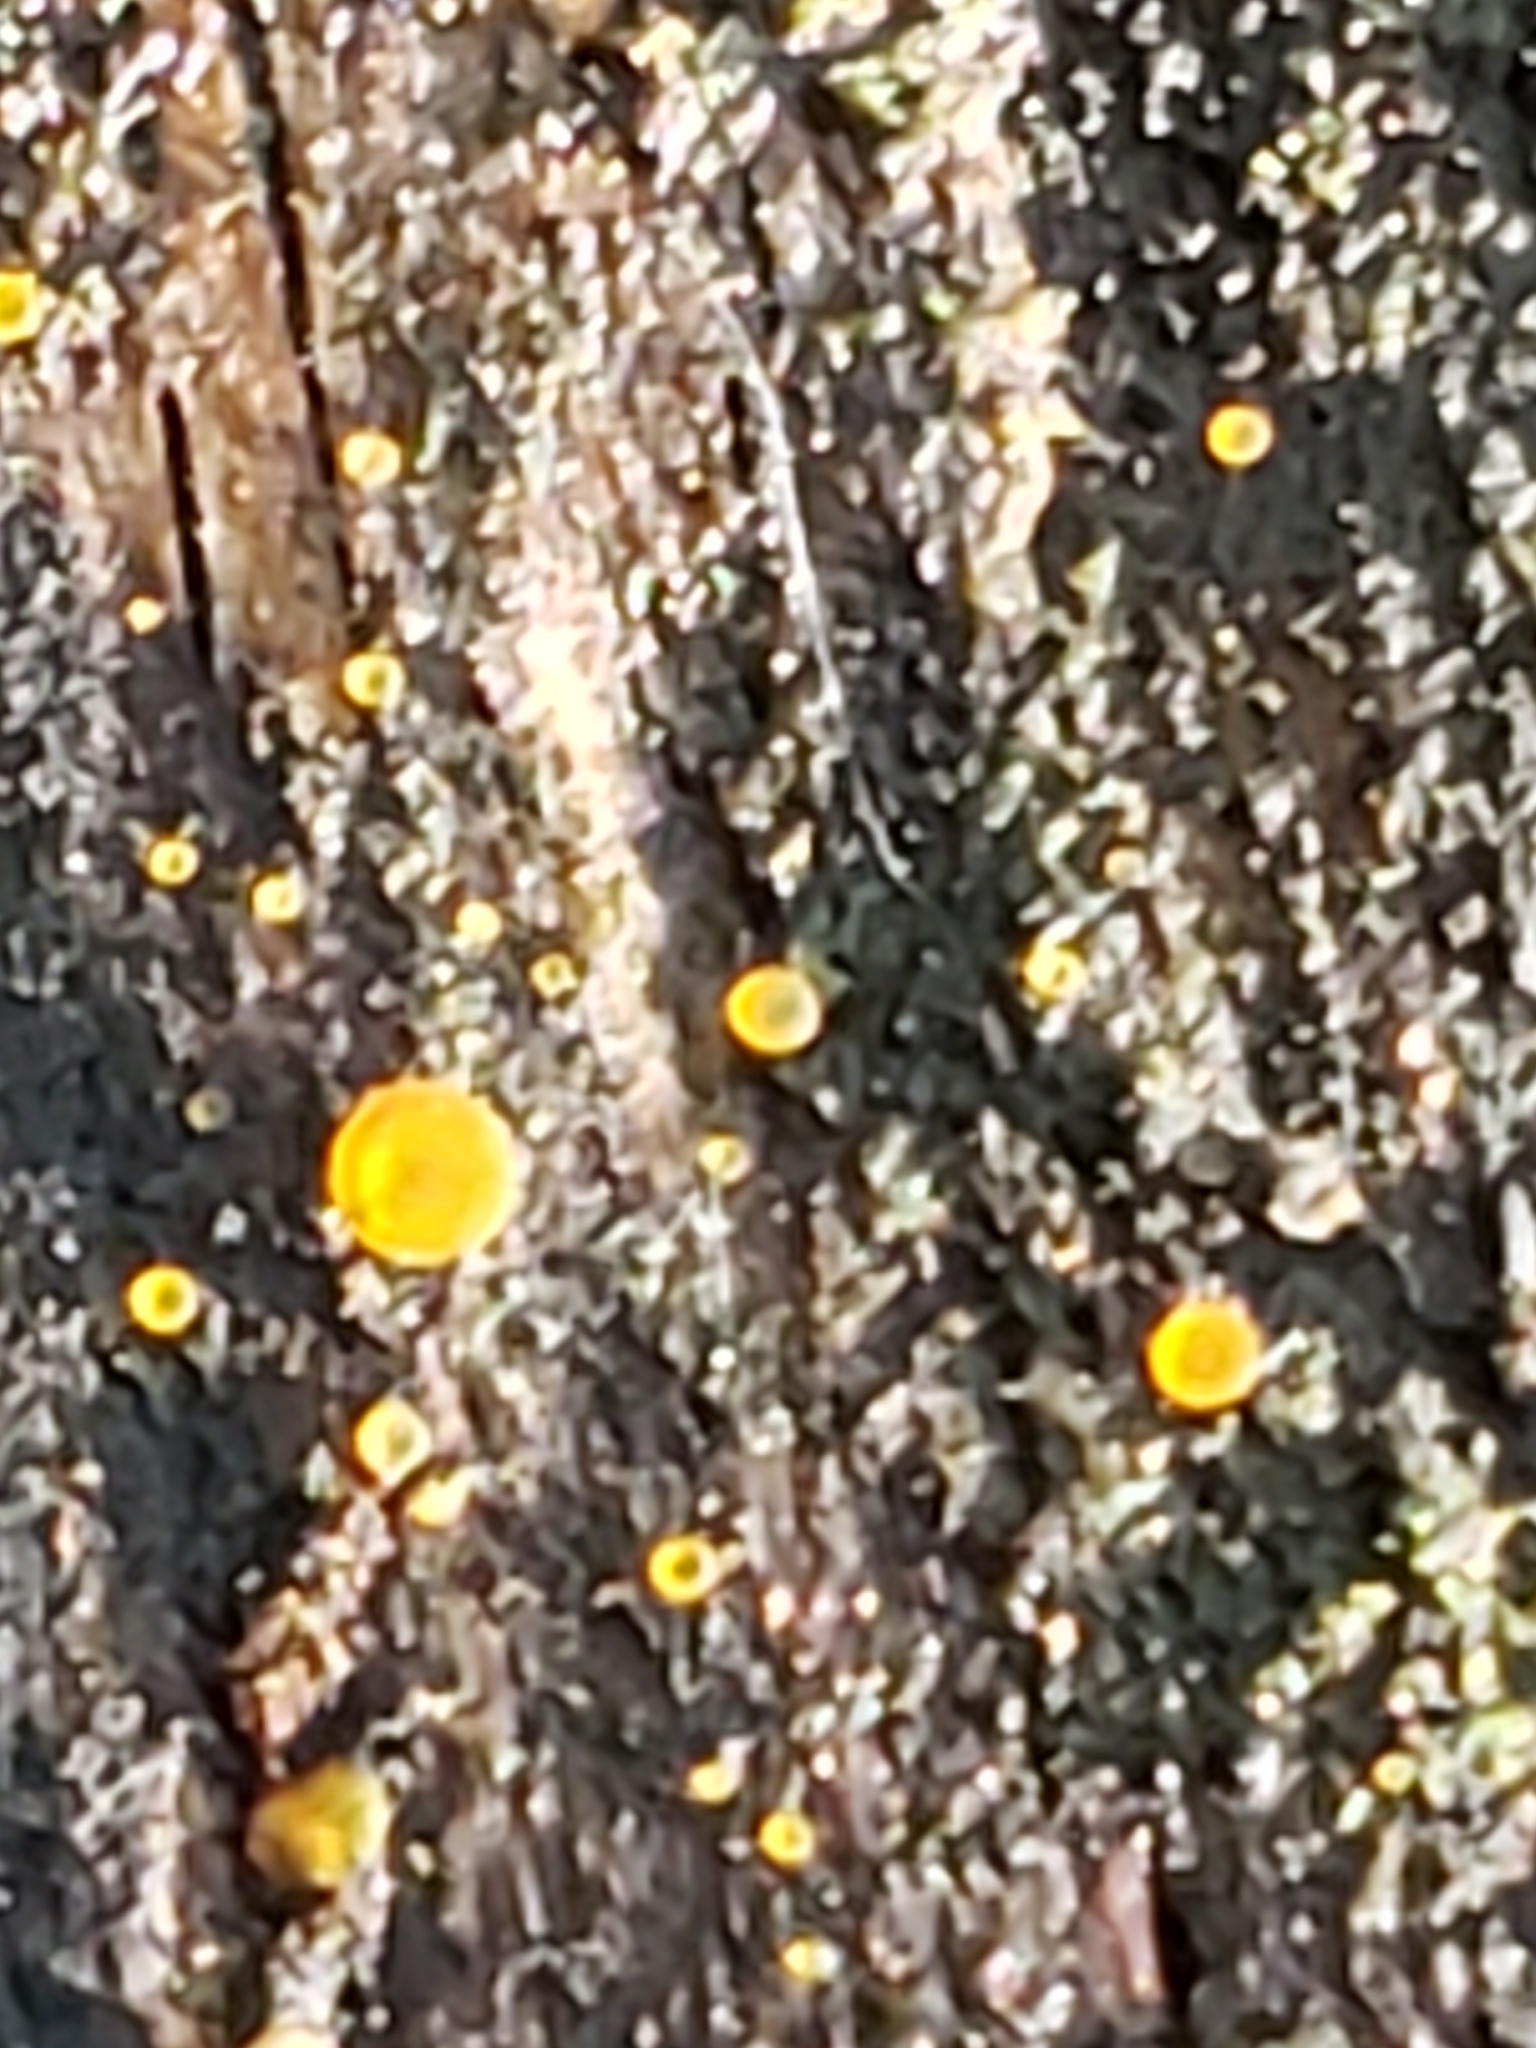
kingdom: Fungi
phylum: Ascomycota
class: Orbiliomycetes
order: Orbiliales
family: Orbiliaceae
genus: Orbilia
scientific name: Orbilia
